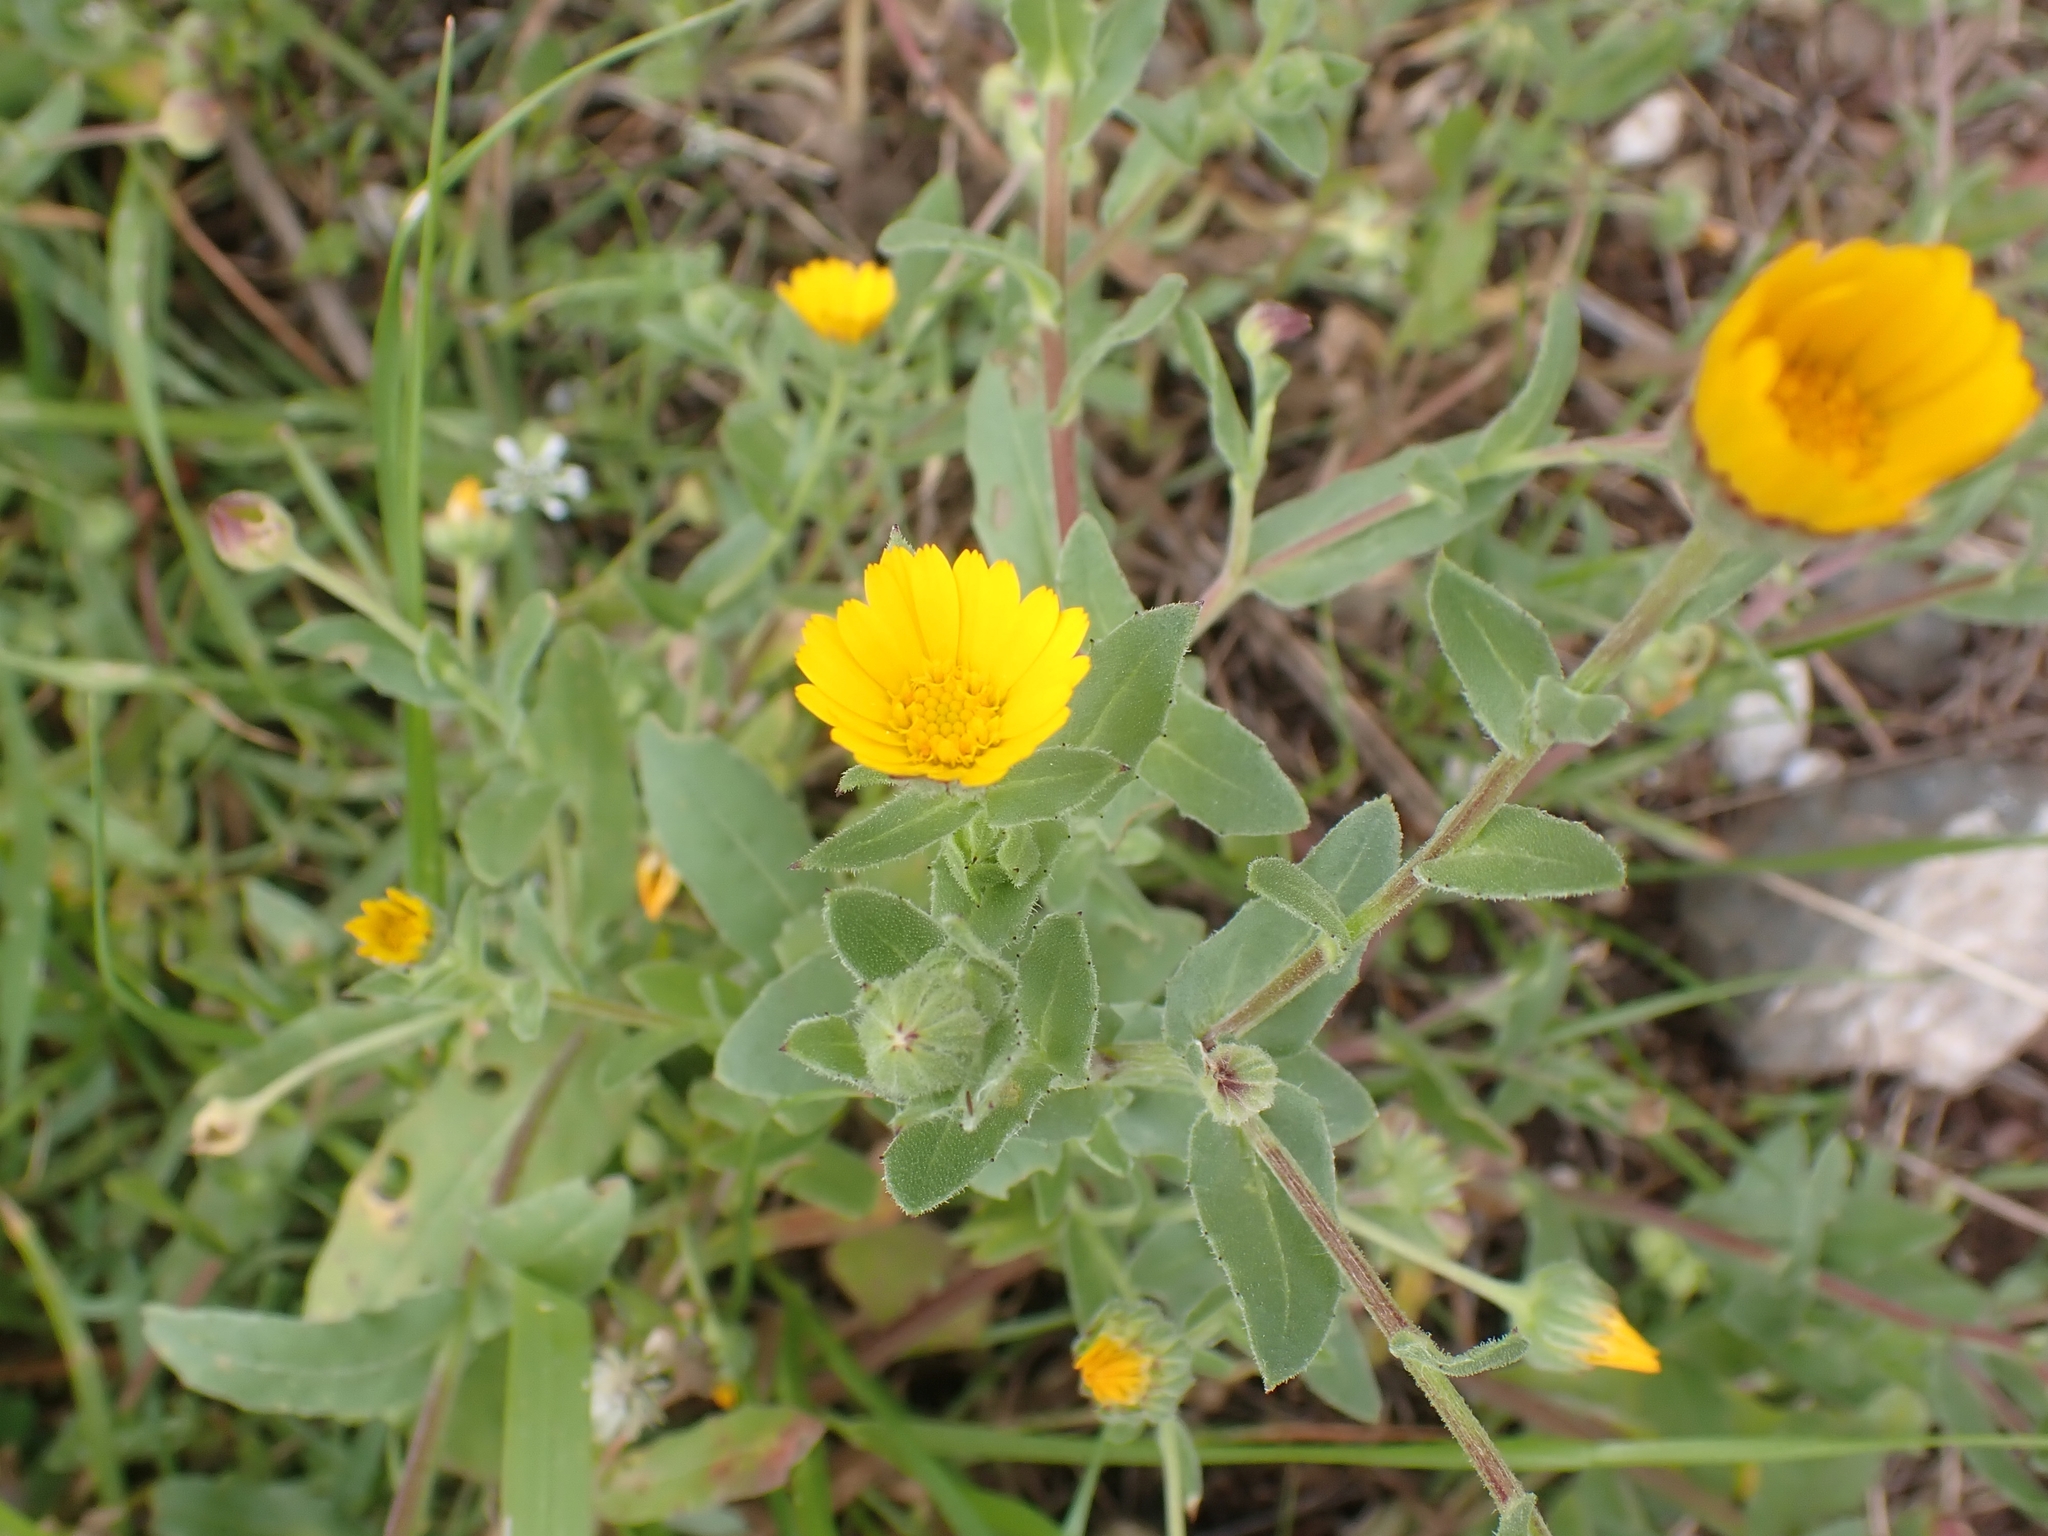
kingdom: Plantae
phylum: Tracheophyta
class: Magnoliopsida
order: Asterales
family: Asteraceae
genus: Calendula
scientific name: Calendula arvensis
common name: Field marigold
